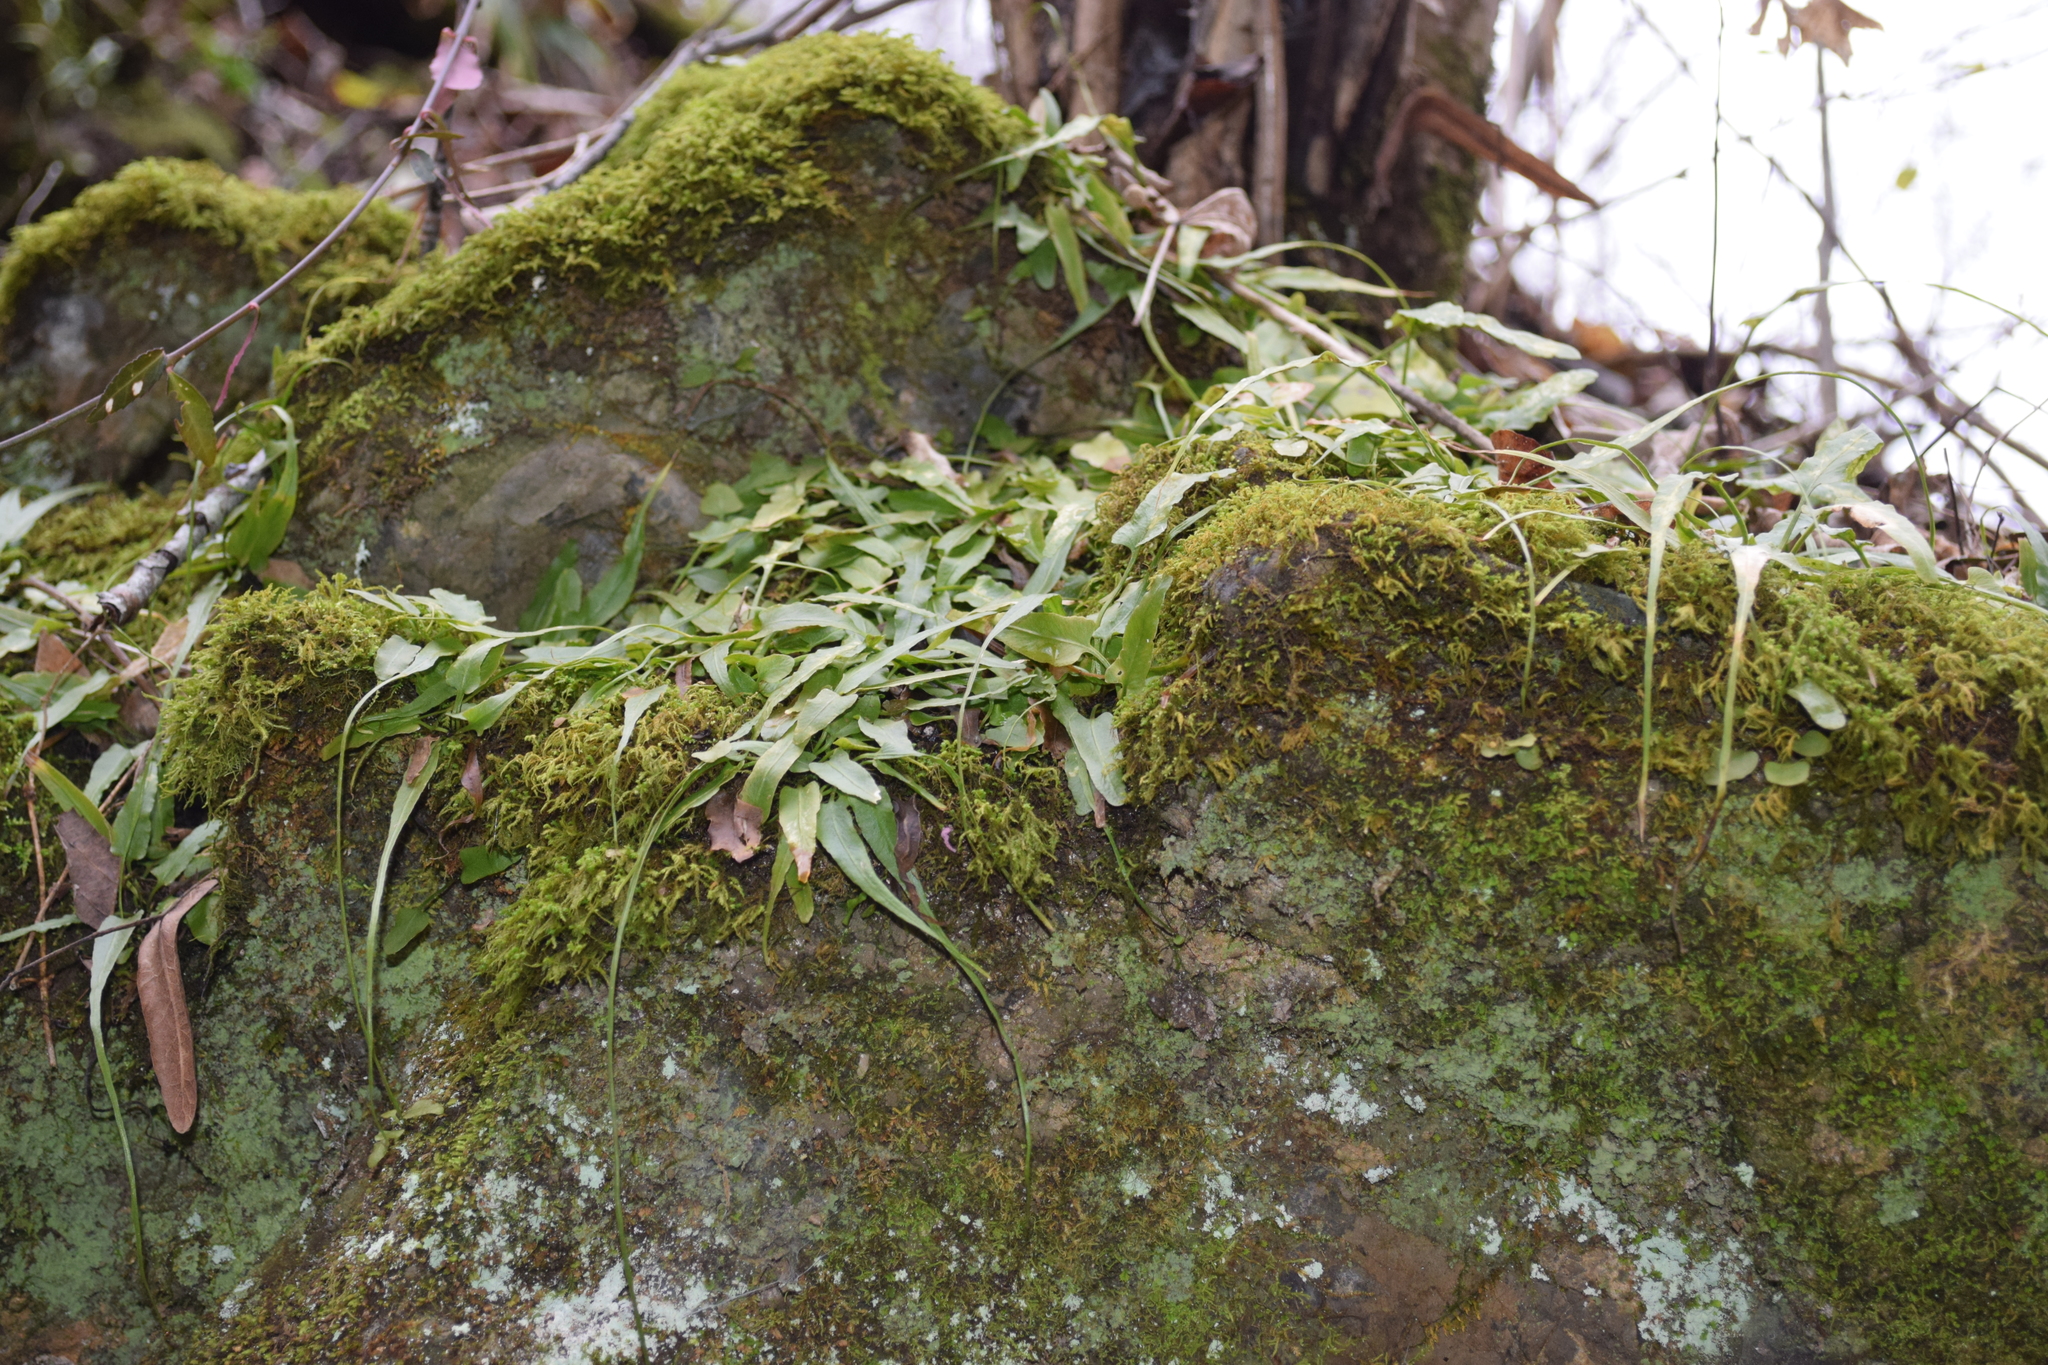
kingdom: Plantae
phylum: Tracheophyta
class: Polypodiopsida
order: Polypodiales
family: Aspleniaceae
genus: Asplenium
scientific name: Asplenium rhizophyllum
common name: Walking fern
